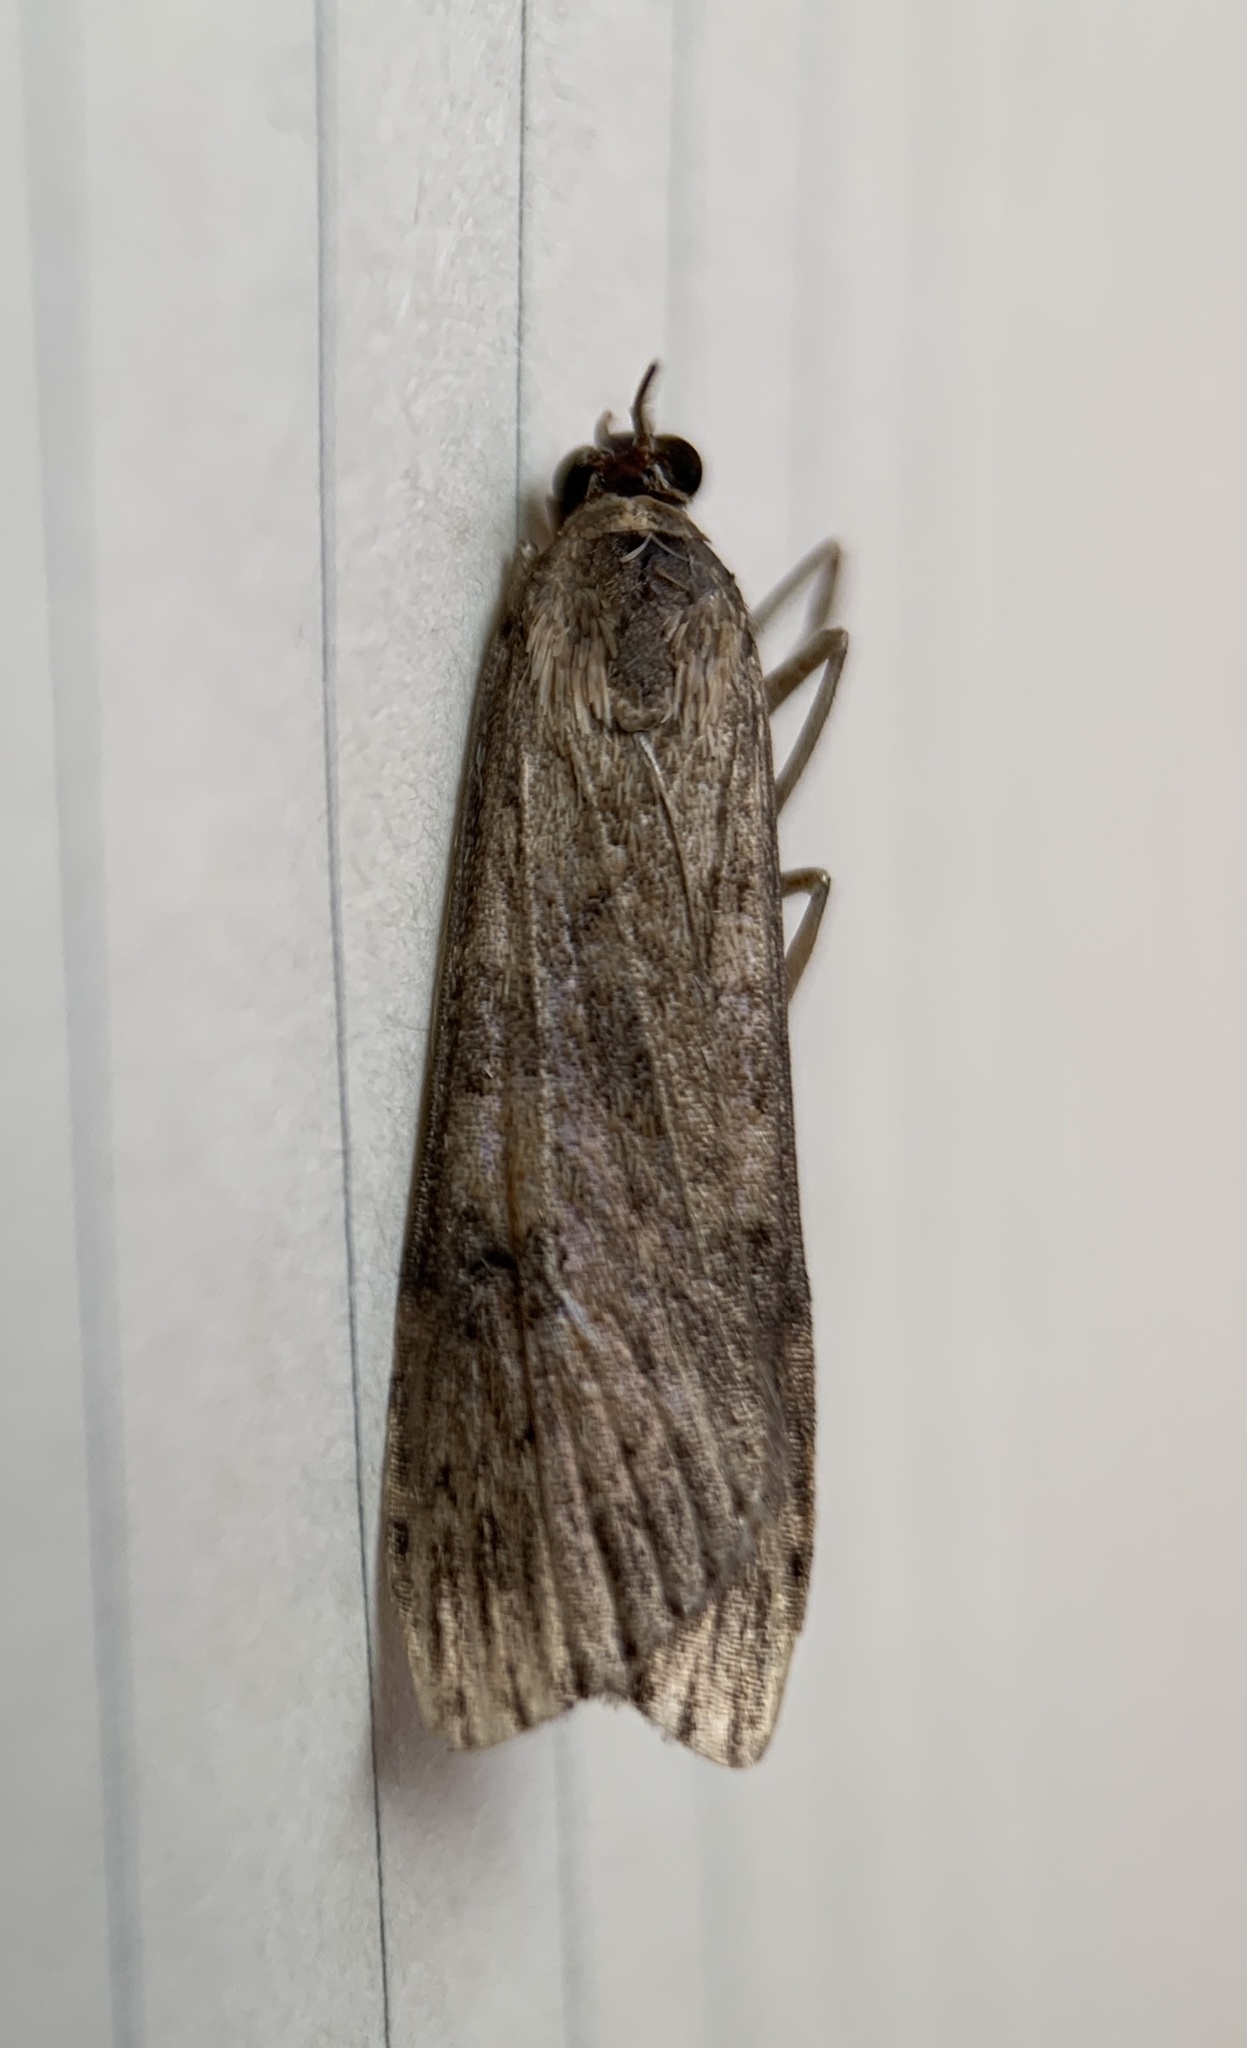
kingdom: Animalia
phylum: Arthropoda
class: Insecta
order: Lepidoptera
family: Crambidae
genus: Nomophila
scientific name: Nomophila nearctica
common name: American rush veneer
